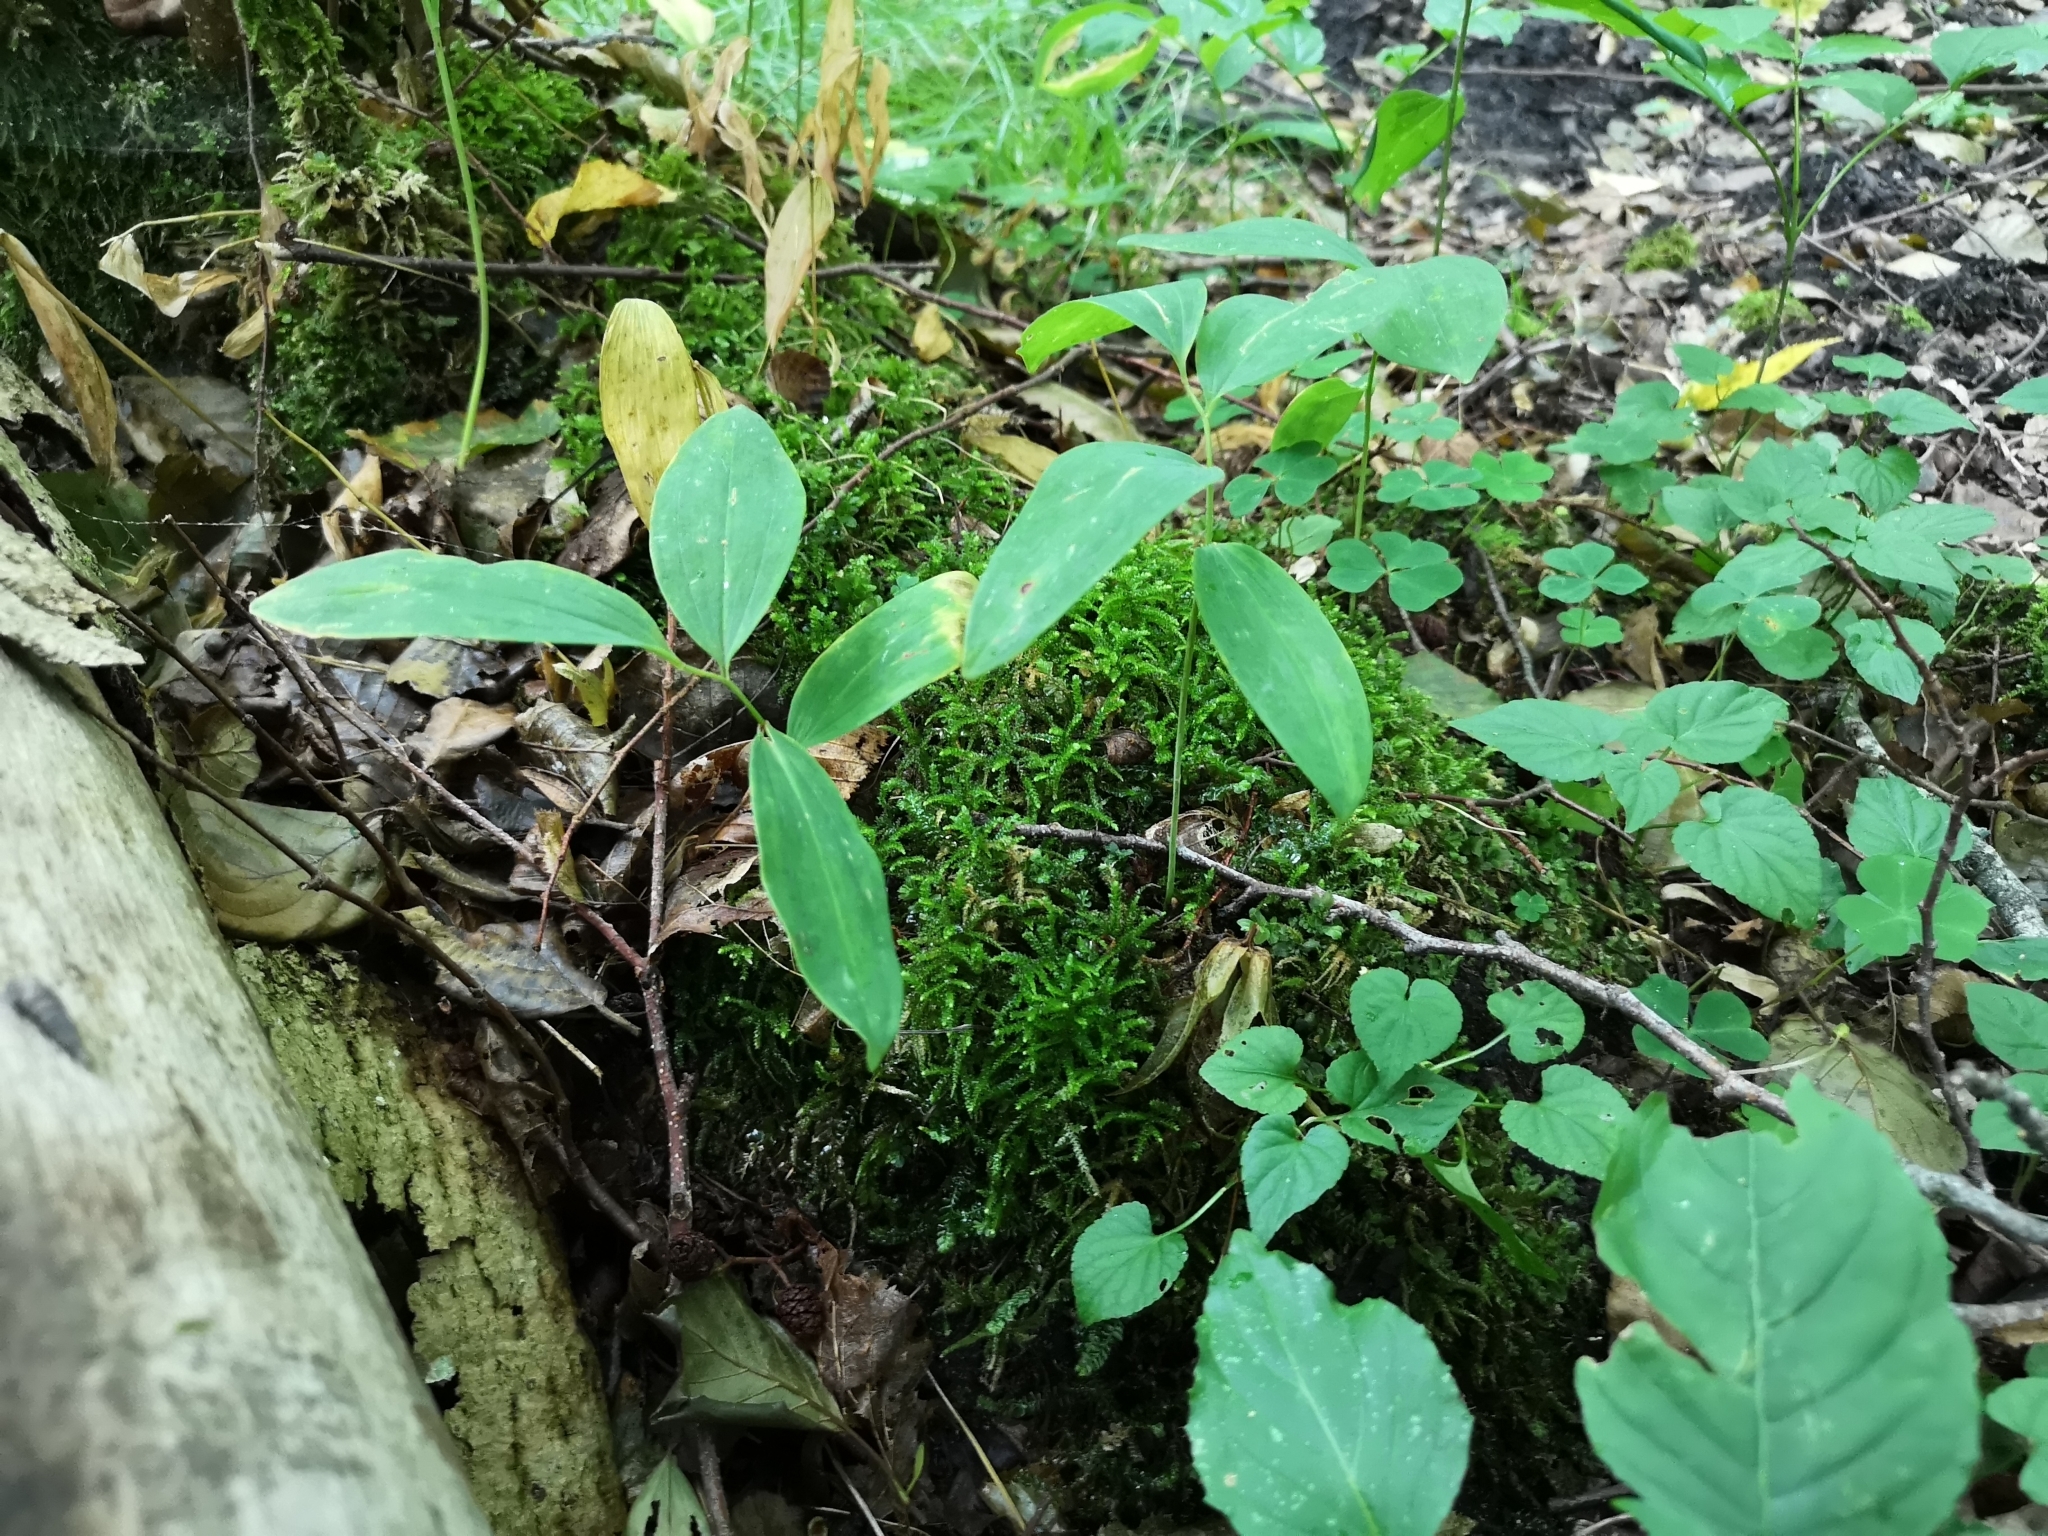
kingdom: Plantae
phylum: Tracheophyta
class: Liliopsida
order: Asparagales
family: Asparagaceae
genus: Polygonatum
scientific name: Polygonatum multiflorum
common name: Solomon's-seal
